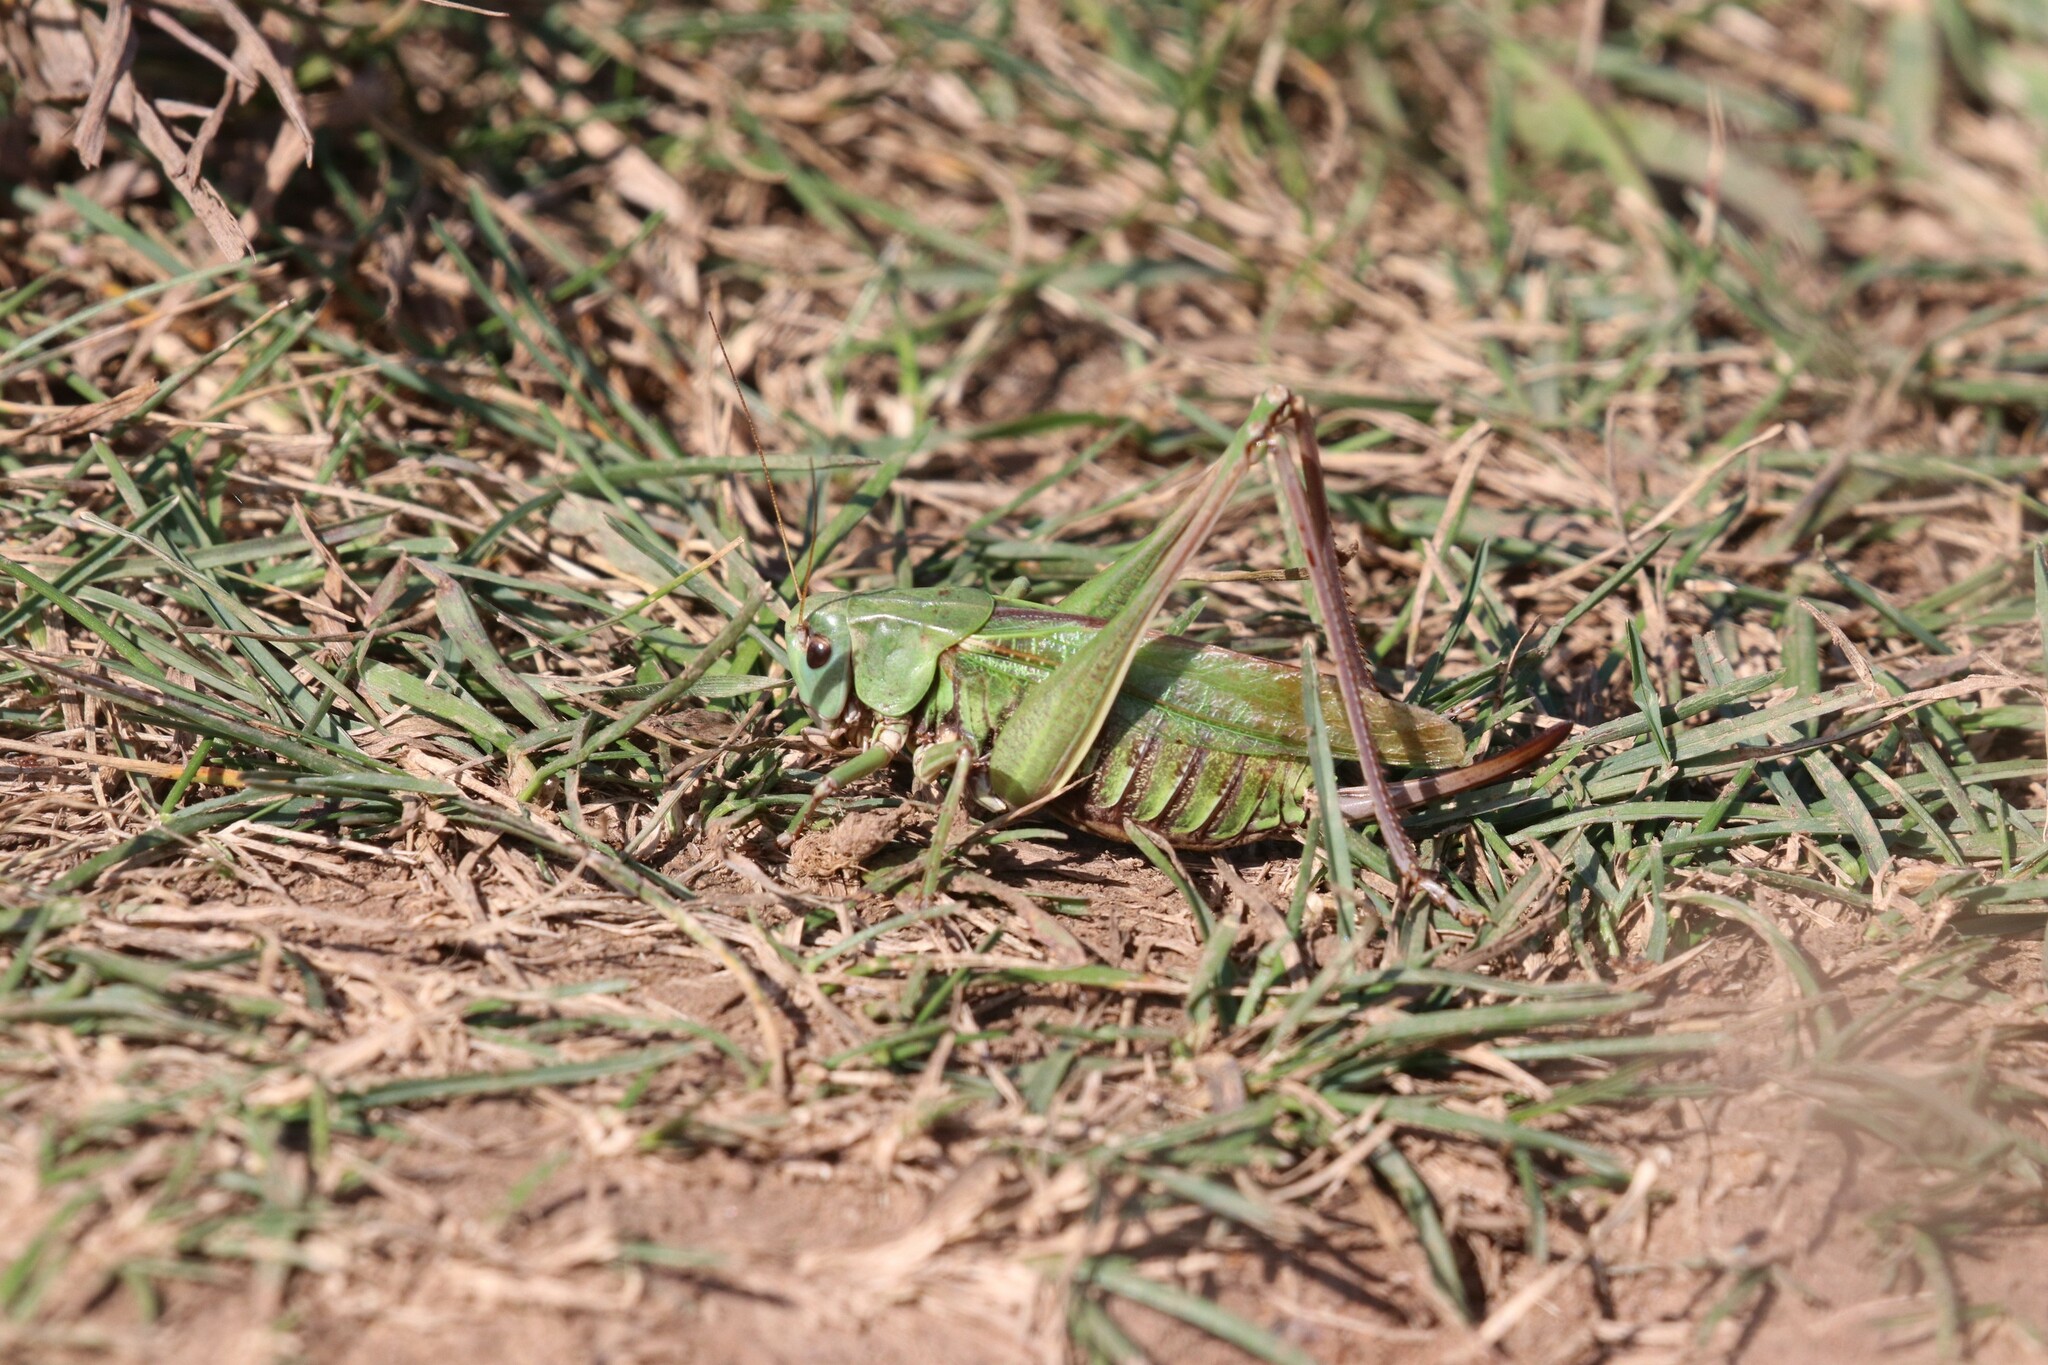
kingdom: Animalia
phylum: Arthropoda
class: Insecta
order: Orthoptera
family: Tettigoniidae
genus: Decticus
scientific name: Decticus verrucivorus
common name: Wart-biter
